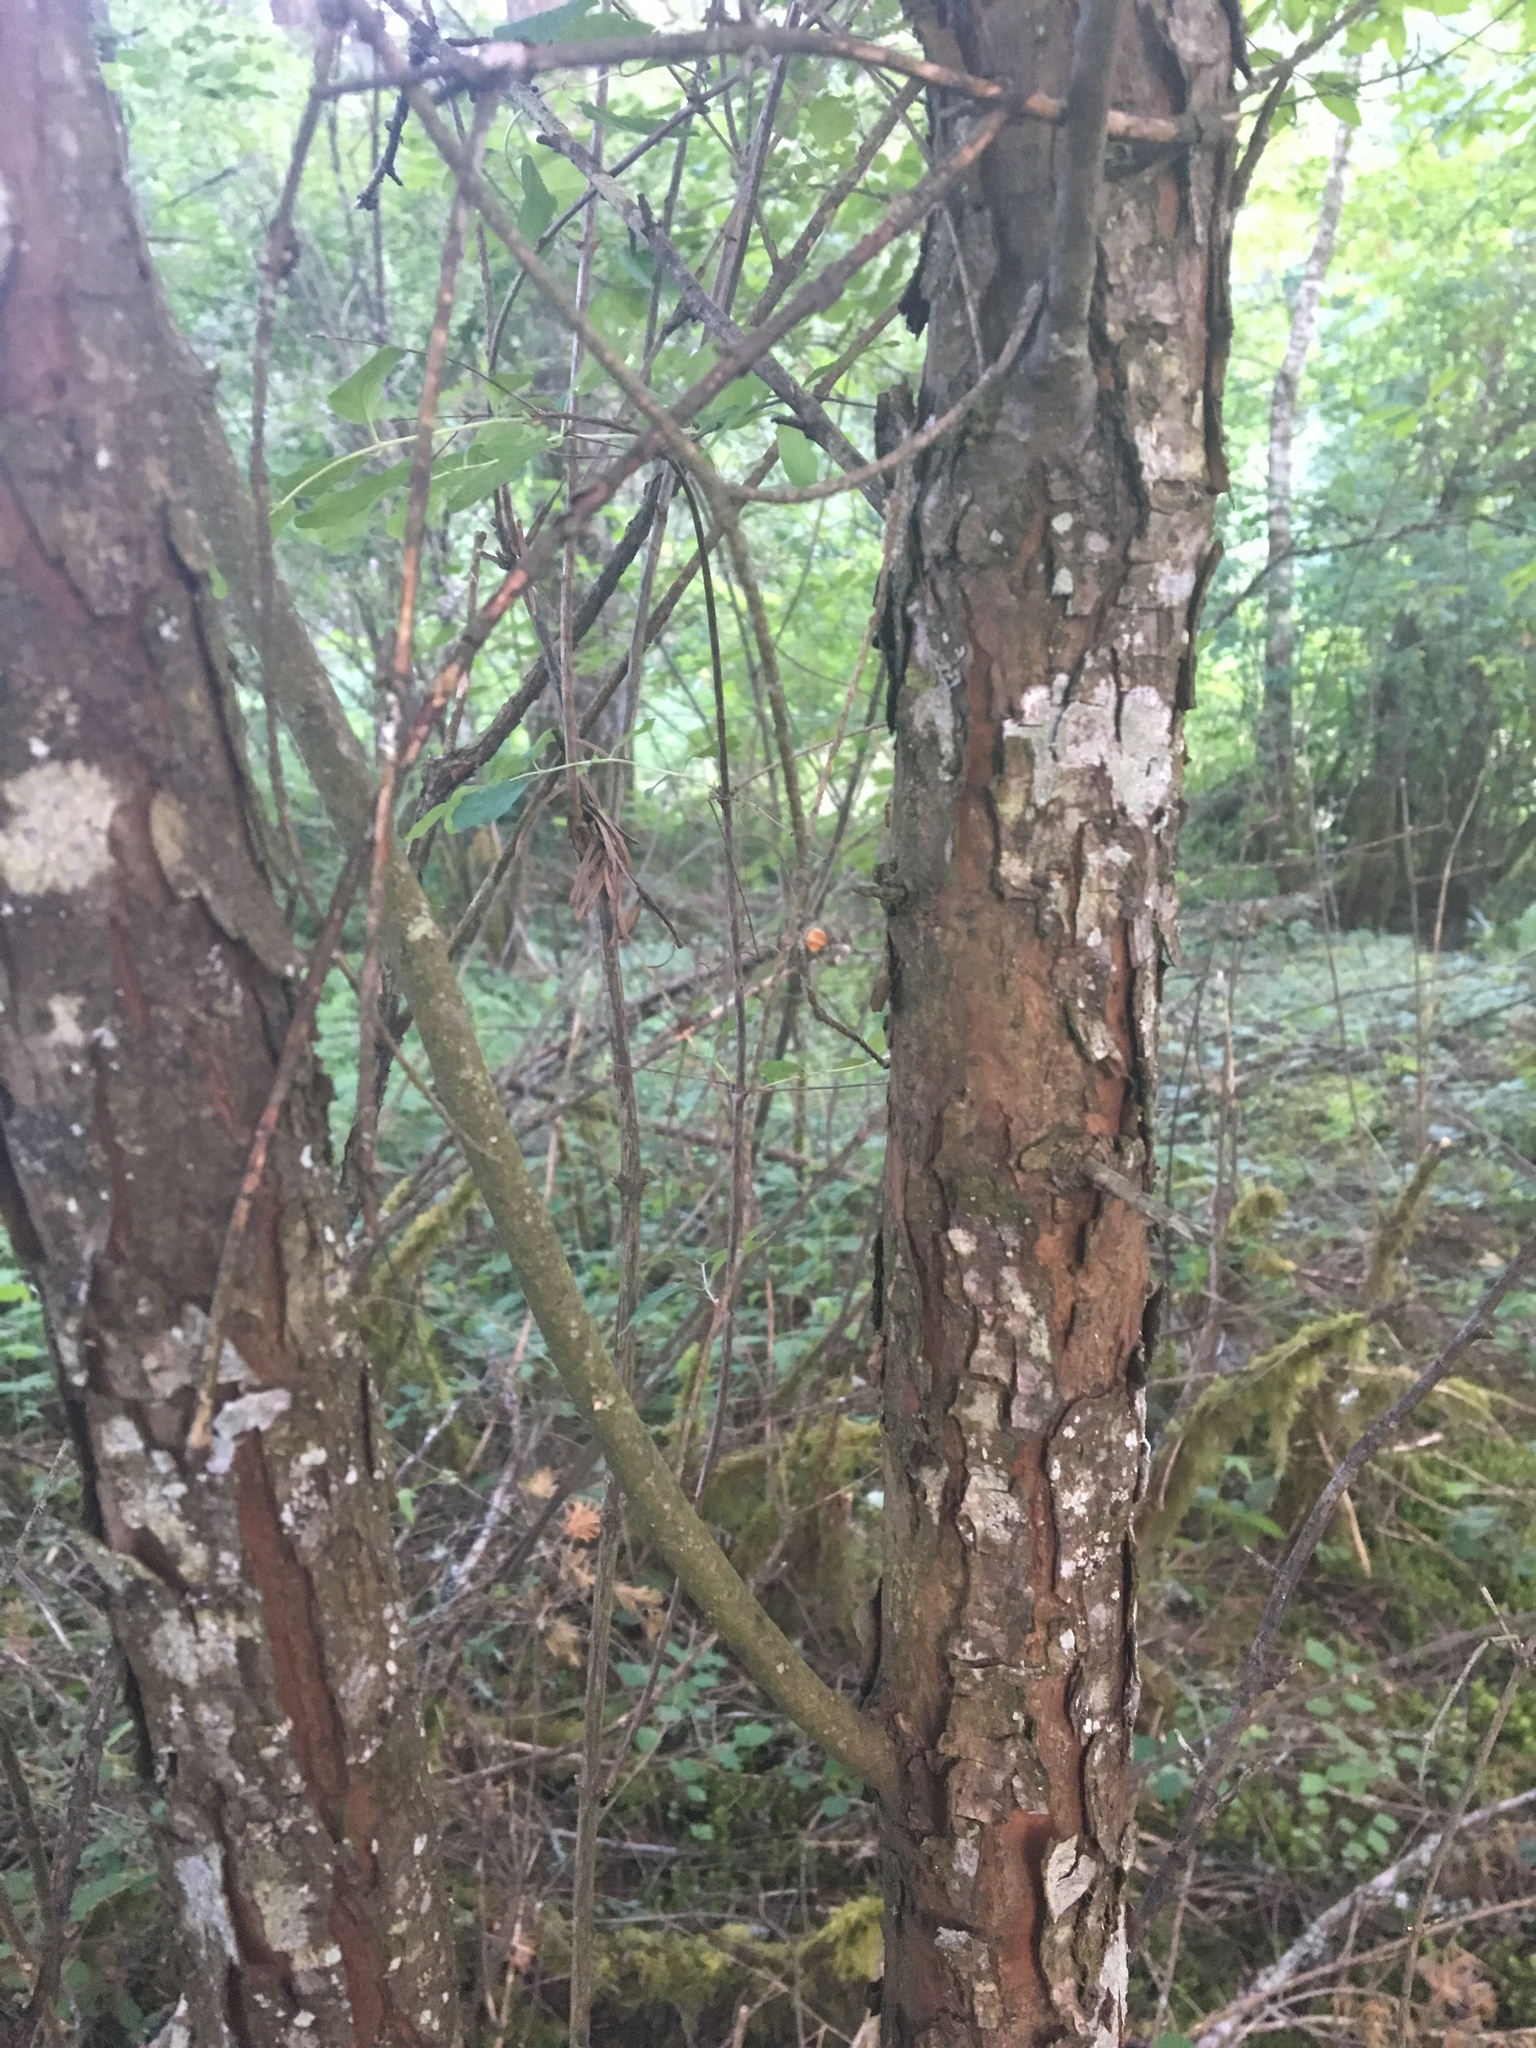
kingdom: Plantae
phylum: Tracheophyta
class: Magnoliopsida
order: Rosales
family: Rosaceae
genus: Physocarpus
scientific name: Physocarpus capitatus
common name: Pacific ninebark
